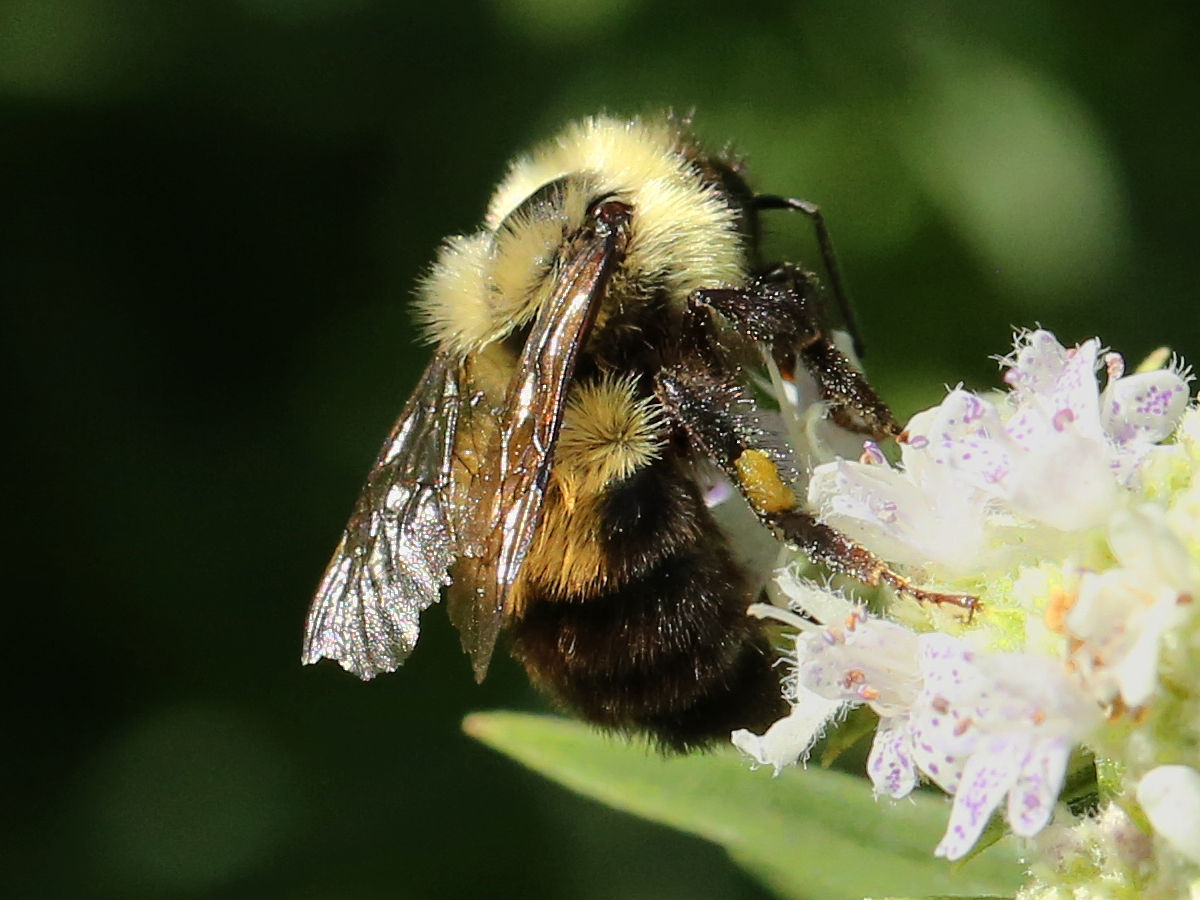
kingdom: Animalia
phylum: Arthropoda
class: Insecta
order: Hymenoptera
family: Apidae
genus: Bombus
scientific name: Bombus bimaculatus
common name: Two-spotted bumble bee
